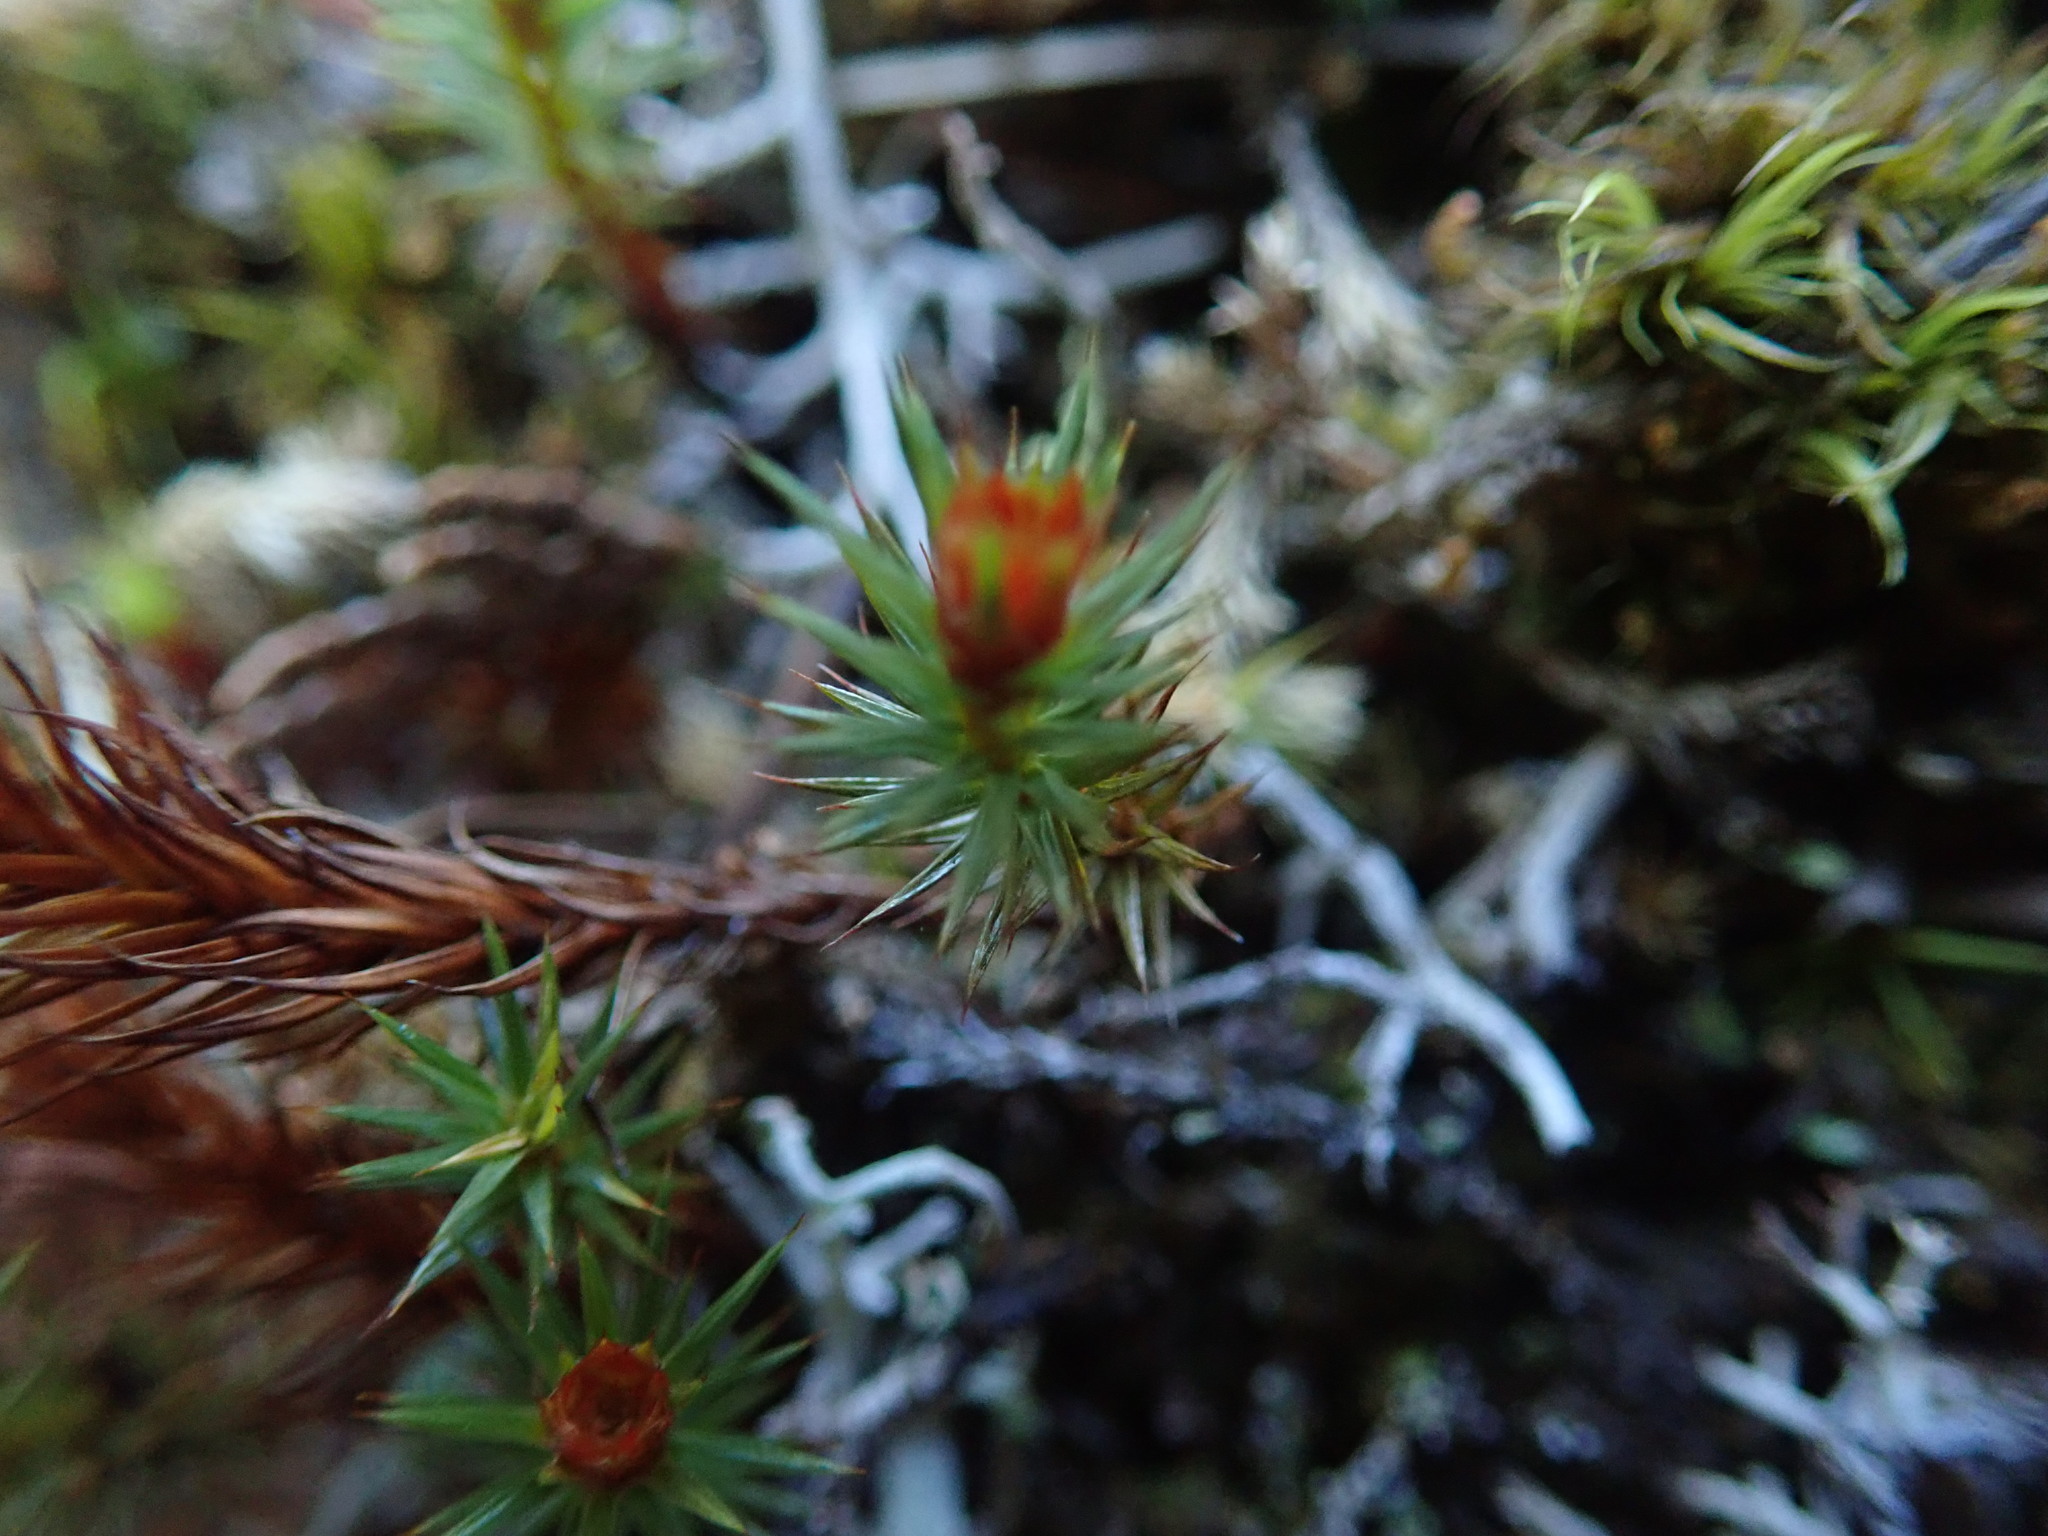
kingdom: Plantae
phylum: Bryophyta
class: Polytrichopsida
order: Polytrichales
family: Polytrichaceae
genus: Polytrichum
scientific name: Polytrichum juniperinum
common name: Juniper haircap moss
